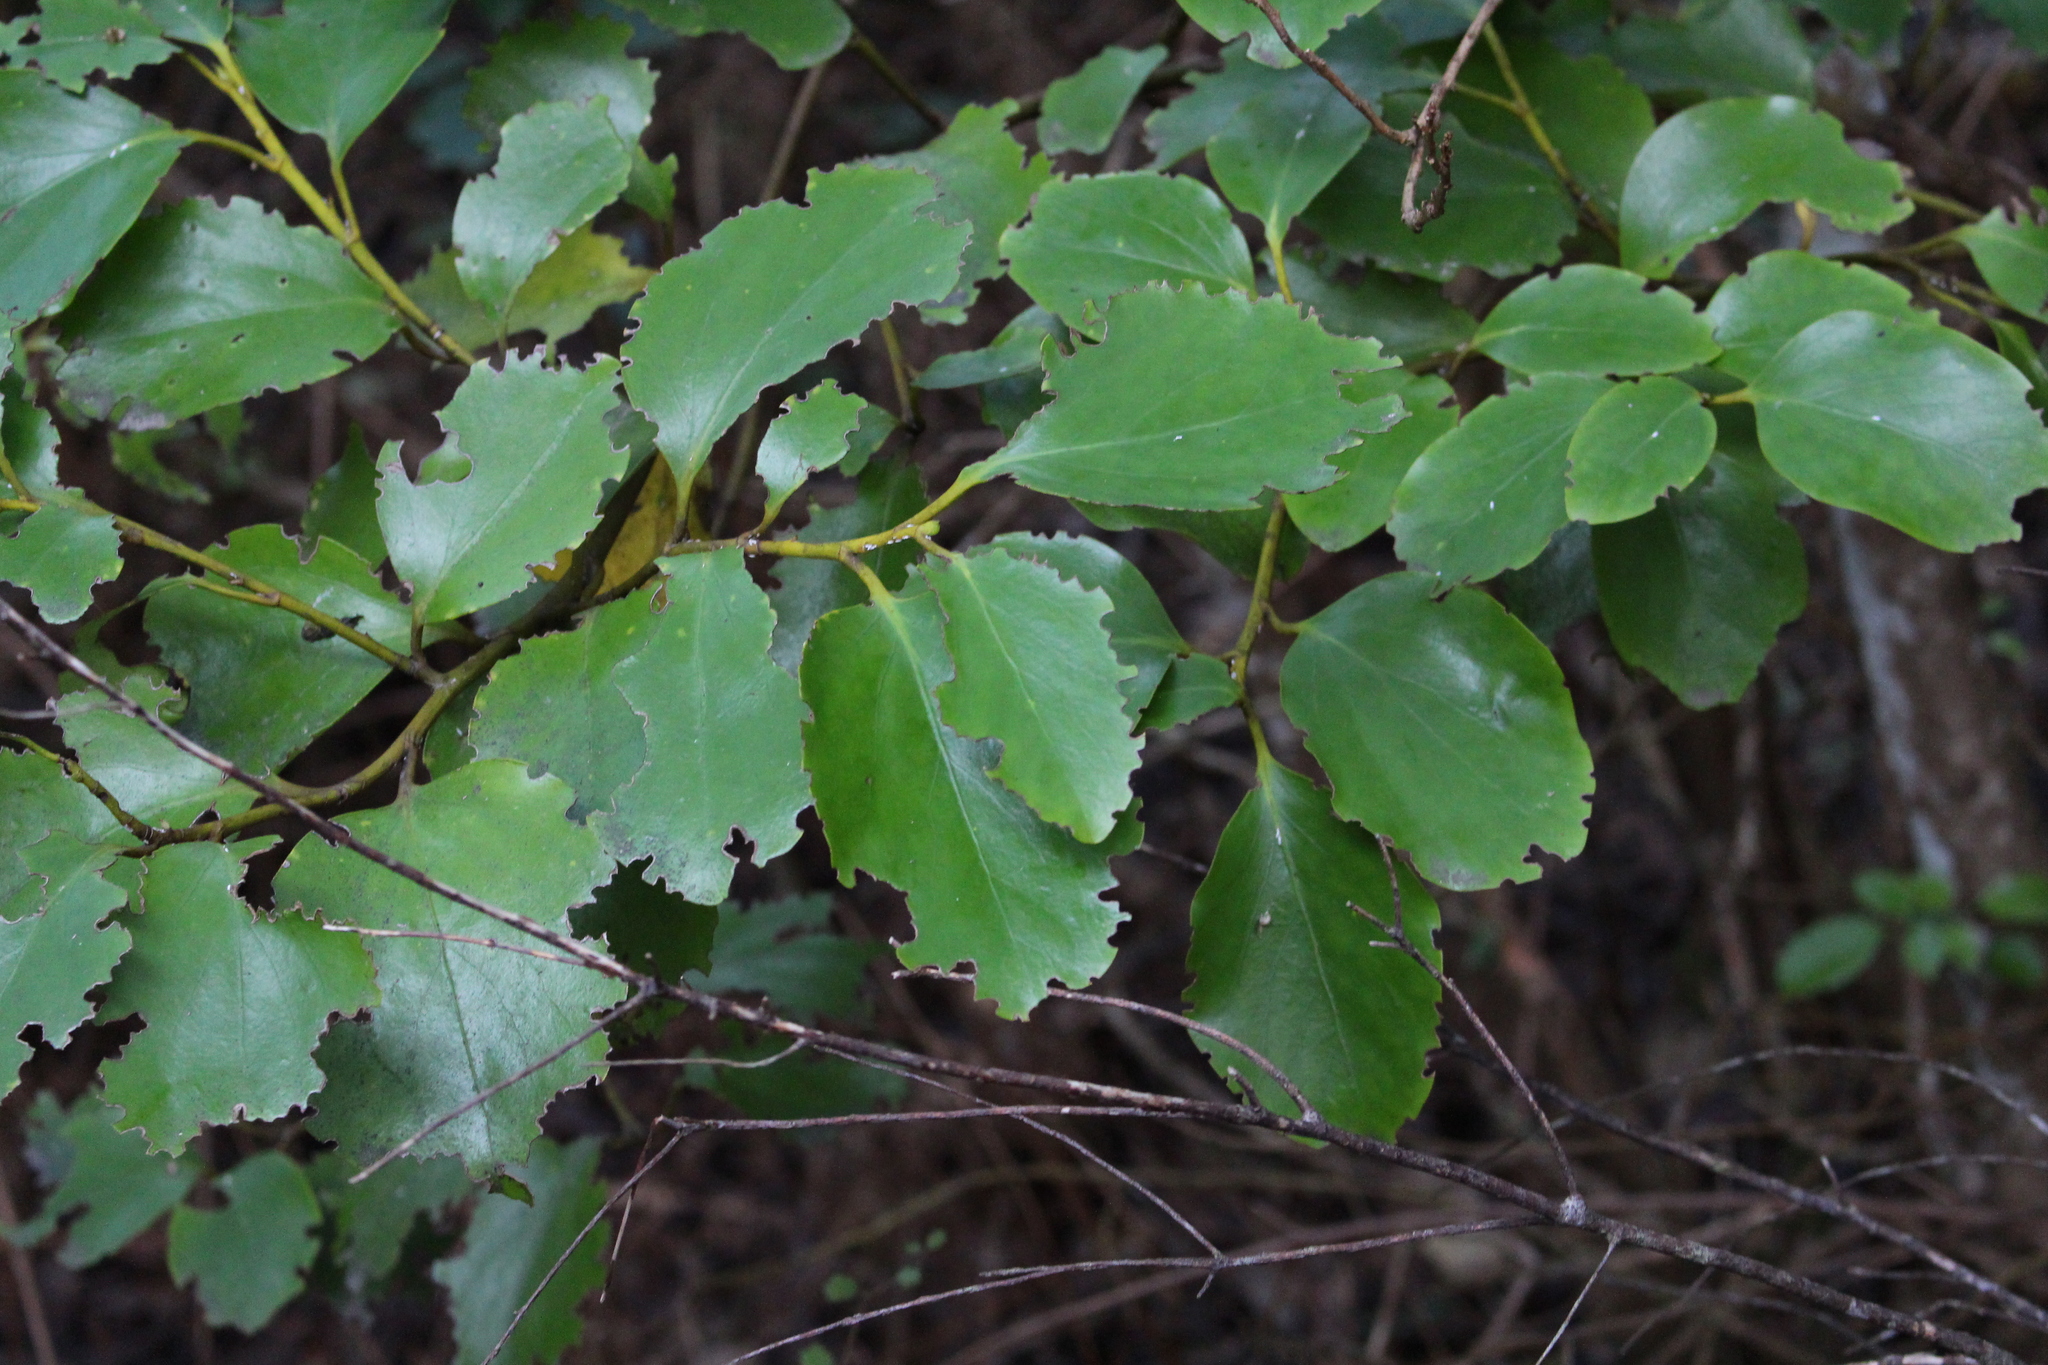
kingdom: Plantae
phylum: Tracheophyta
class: Magnoliopsida
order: Apiales
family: Griseliniaceae
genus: Griselinia
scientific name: Griselinia littoralis
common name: New zealand broadleaf
